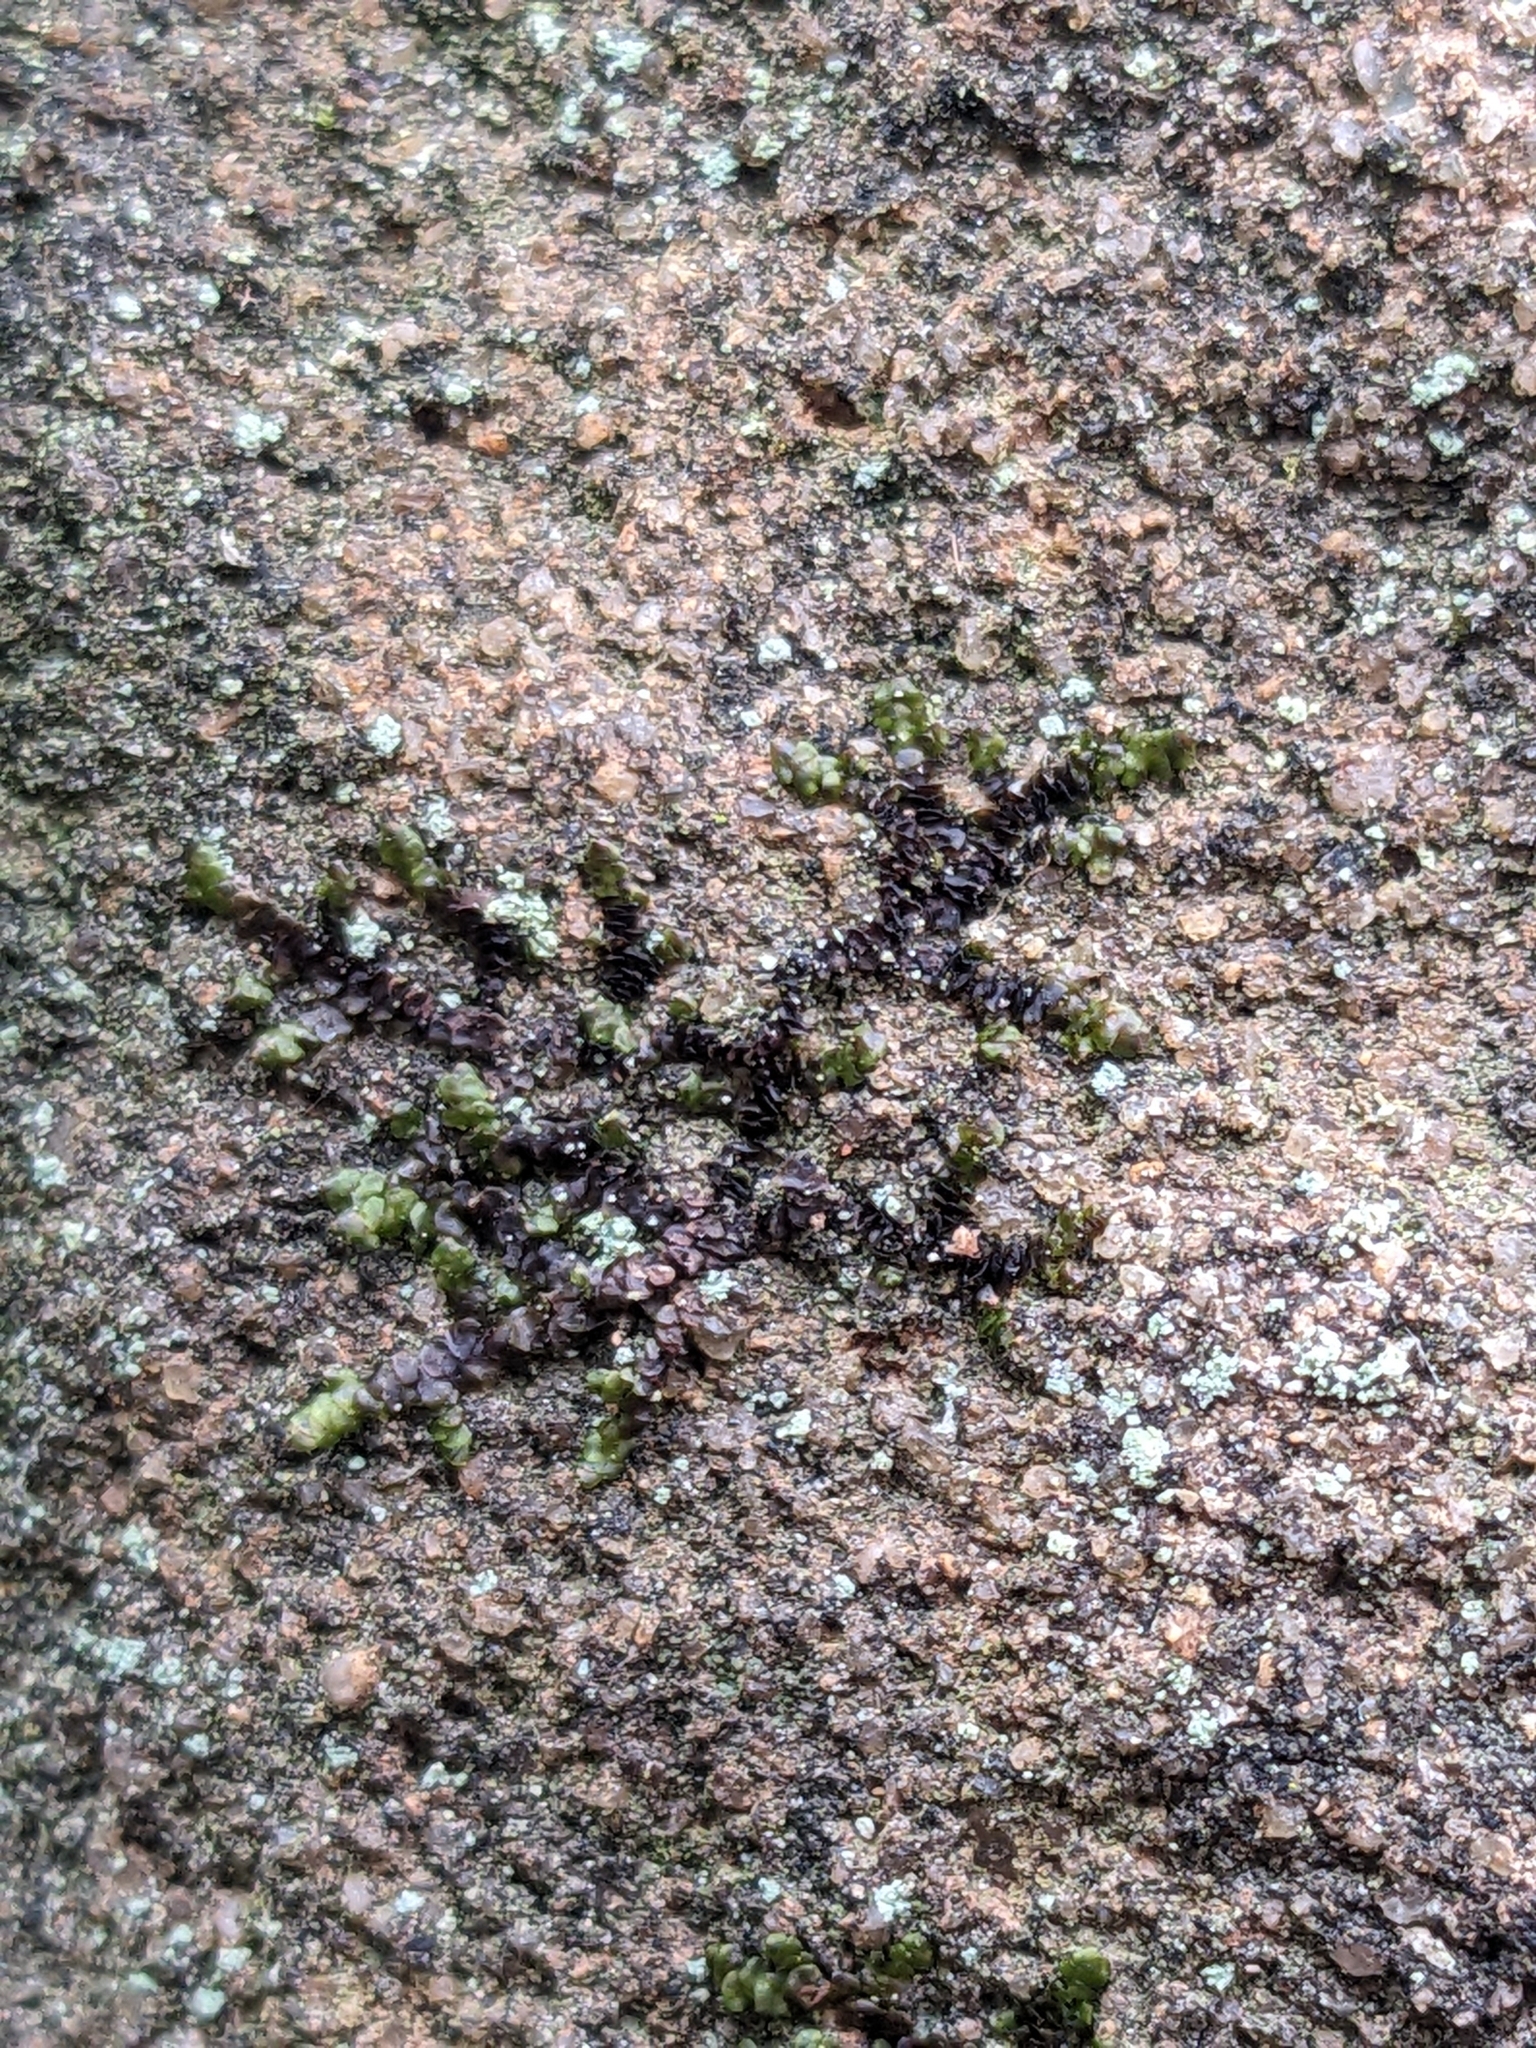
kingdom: Plantae
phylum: Marchantiophyta
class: Jungermanniopsida
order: Porellales
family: Frullaniaceae
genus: Frullania
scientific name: Frullania bolanderi
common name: Bolander s scalewort
